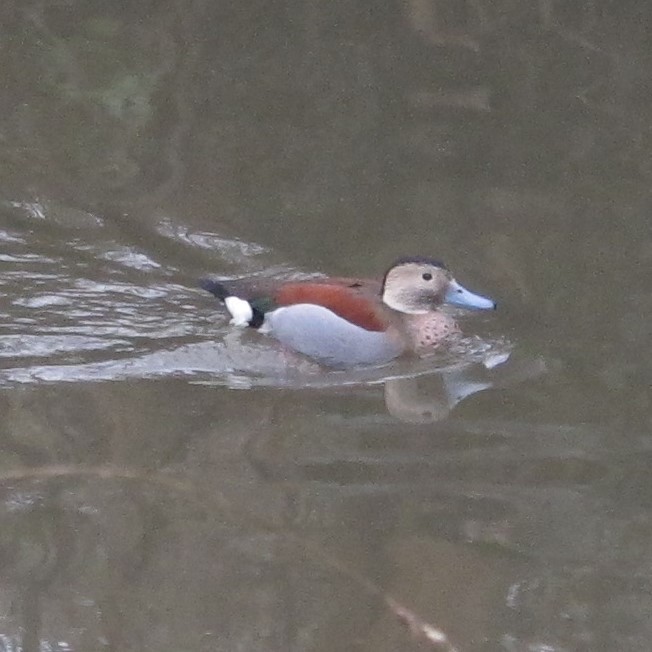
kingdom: Animalia
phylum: Chordata
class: Aves
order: Anseriformes
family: Anatidae
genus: Callonetta
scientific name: Callonetta leucophrys
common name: Ringed teal
